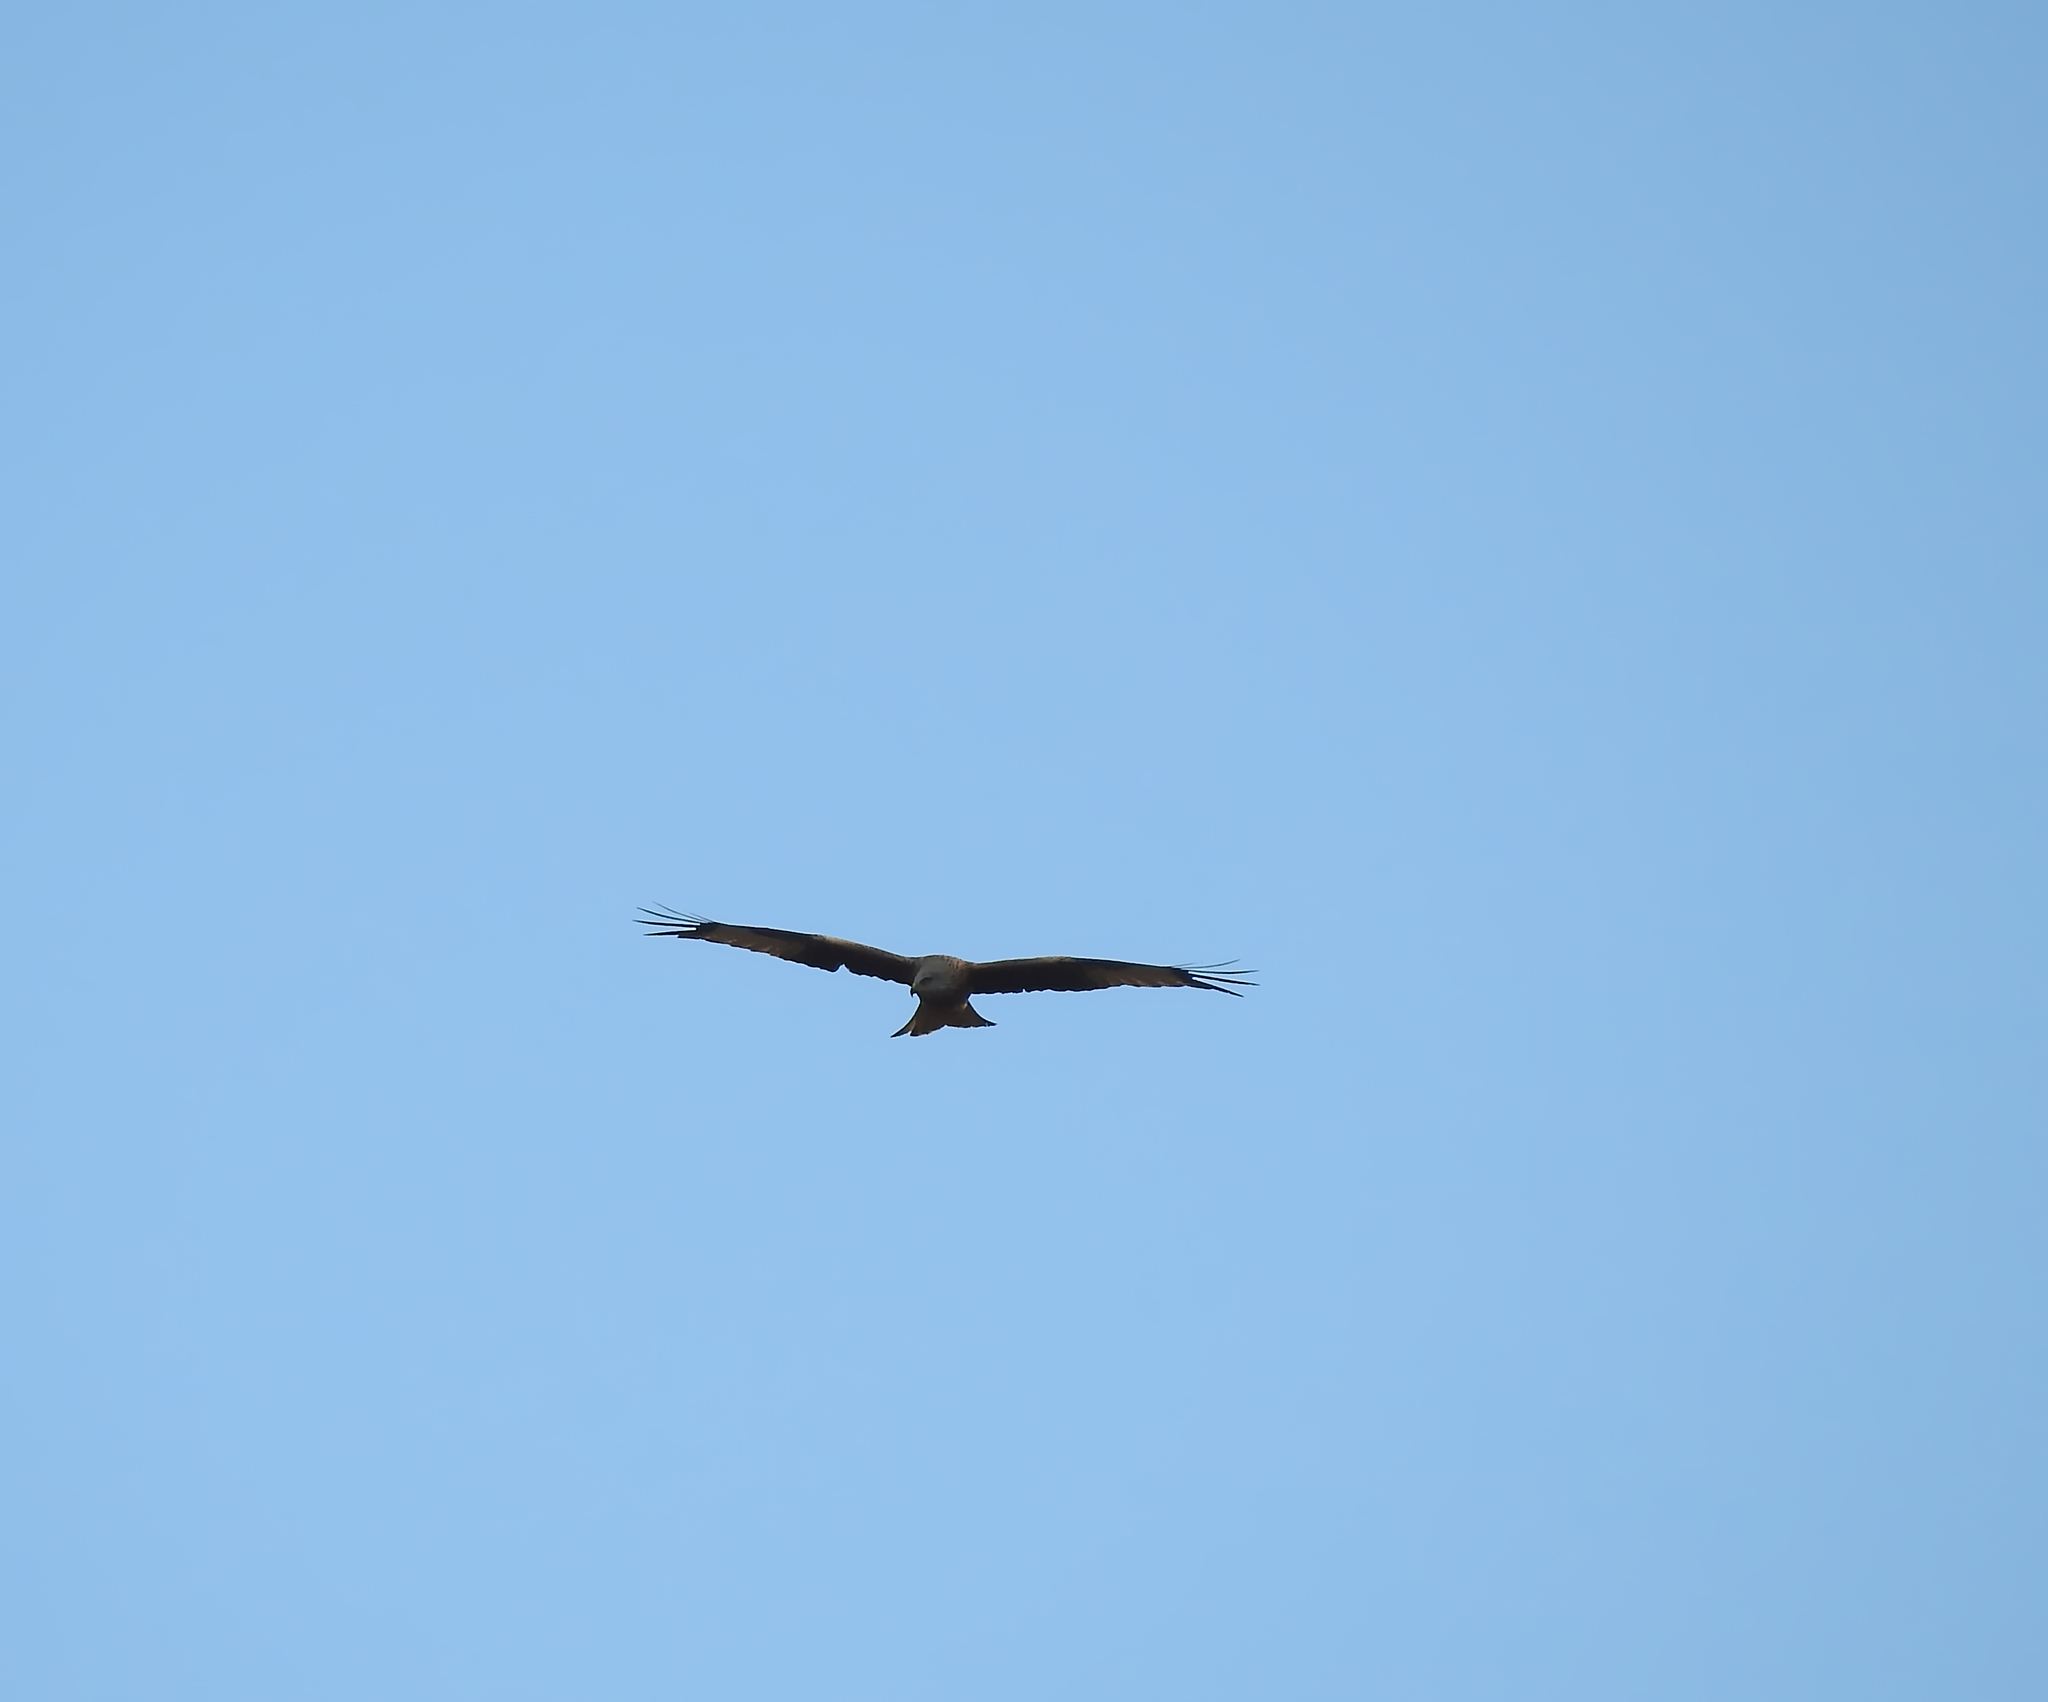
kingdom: Animalia
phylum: Chordata
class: Aves
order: Accipitriformes
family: Accipitridae
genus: Milvus
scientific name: Milvus milvus
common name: Red kite
